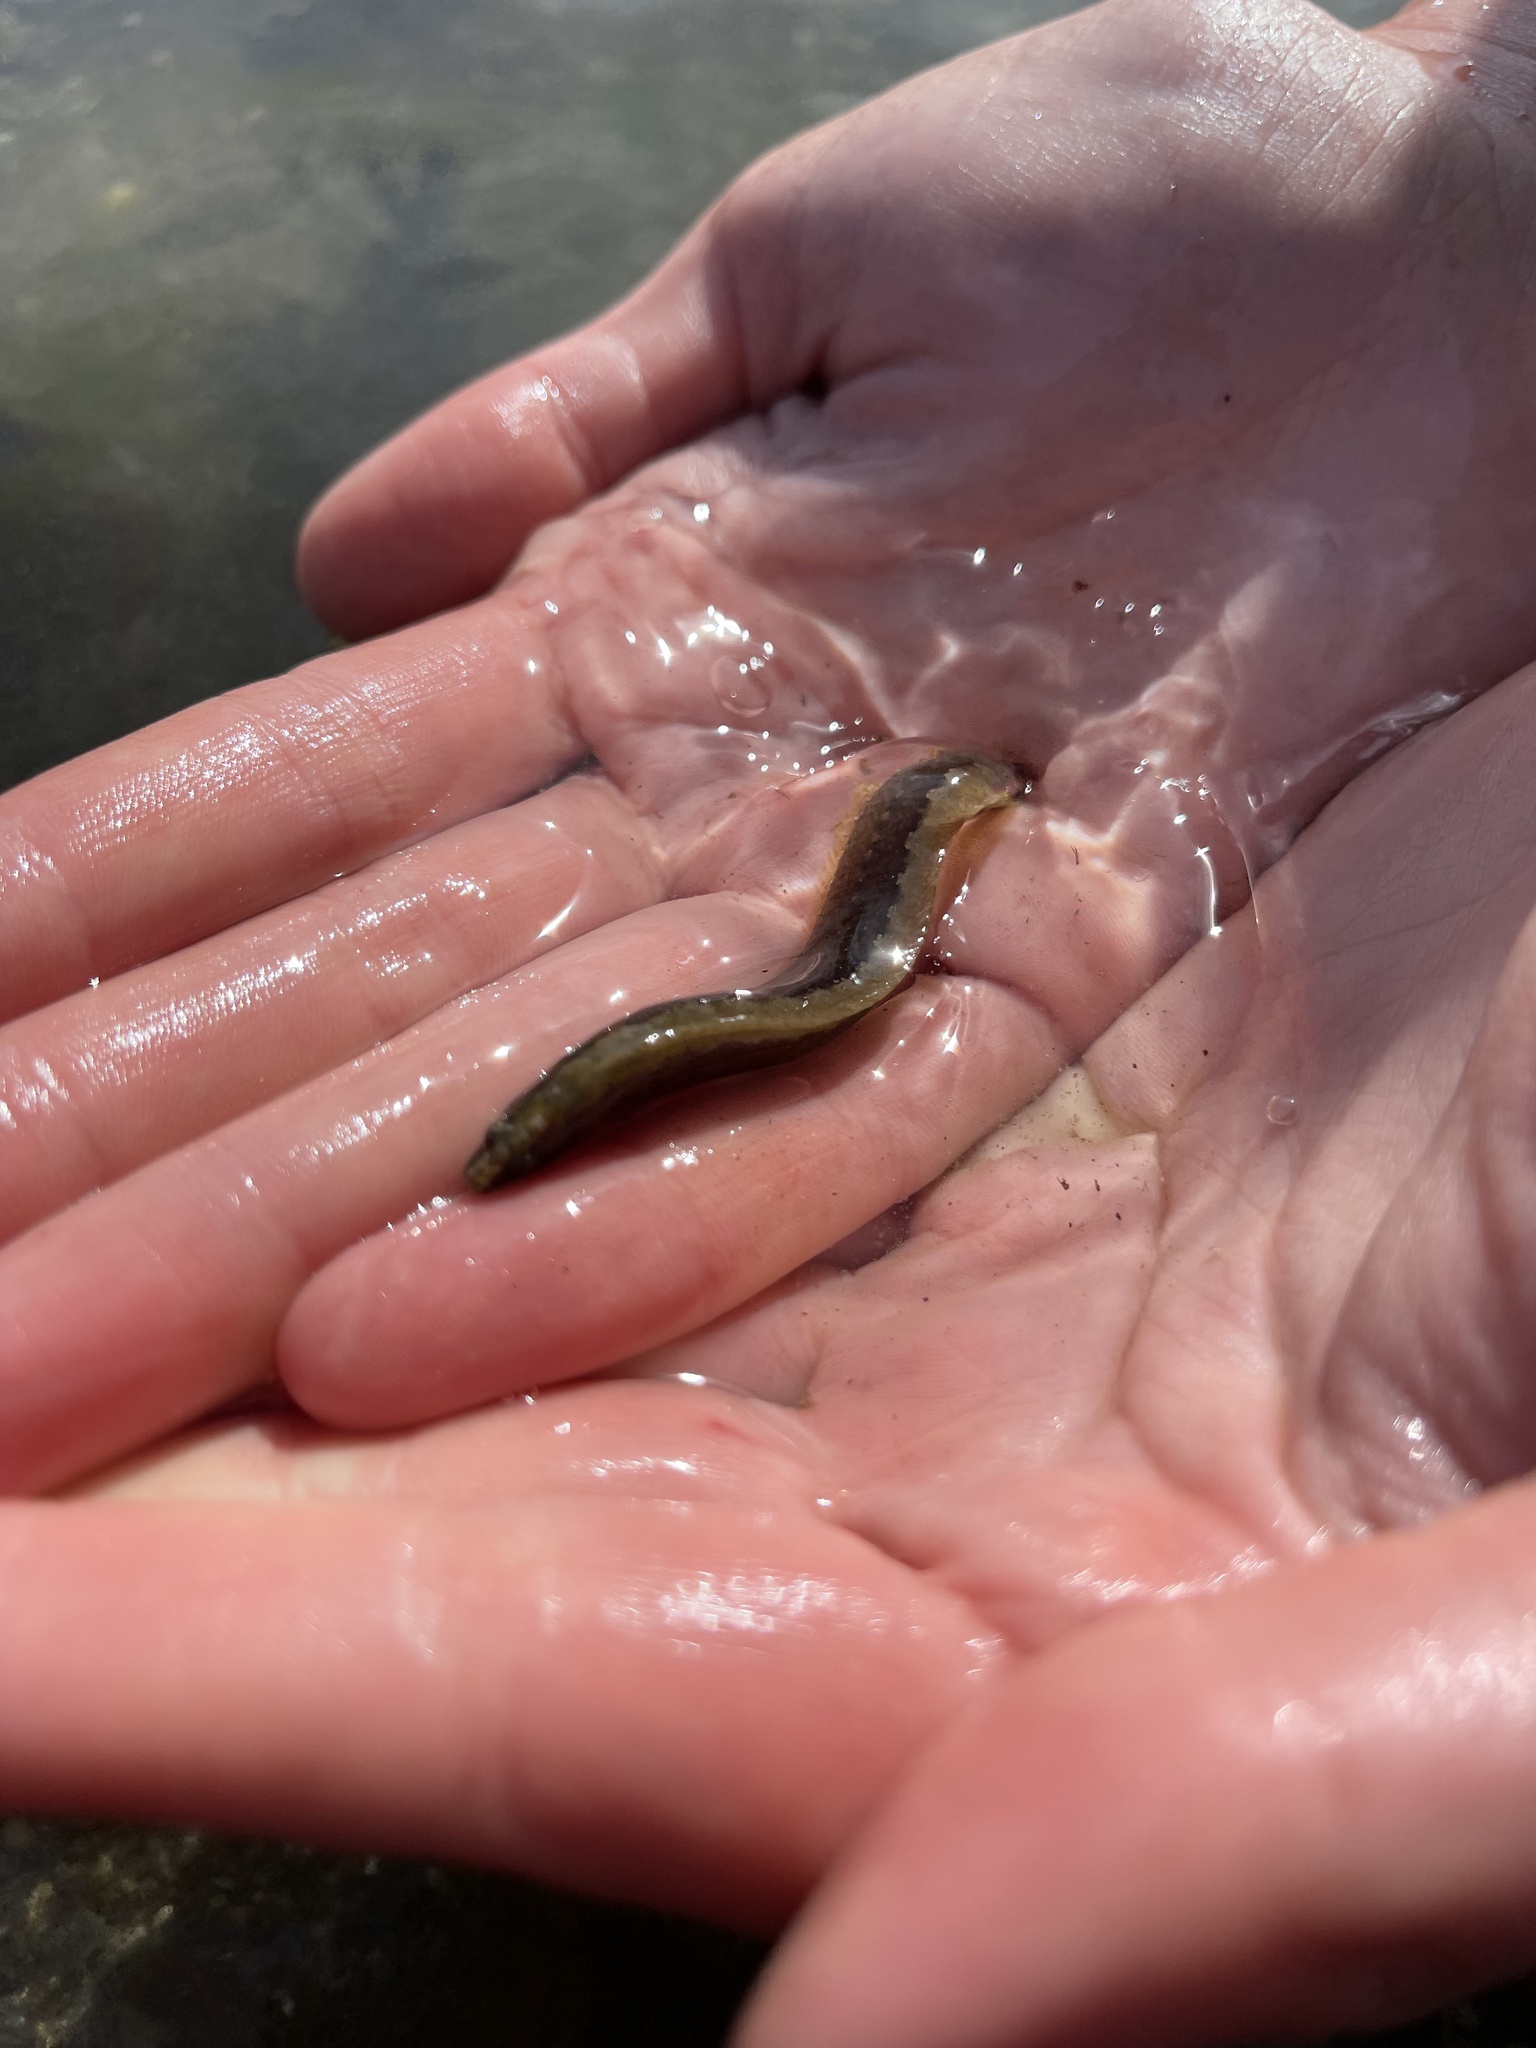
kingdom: Animalia
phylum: Chordata
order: Perciformes
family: Stichaeidae
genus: Anoplarchus
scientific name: Anoplarchus purpurescens
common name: High cockscomb
